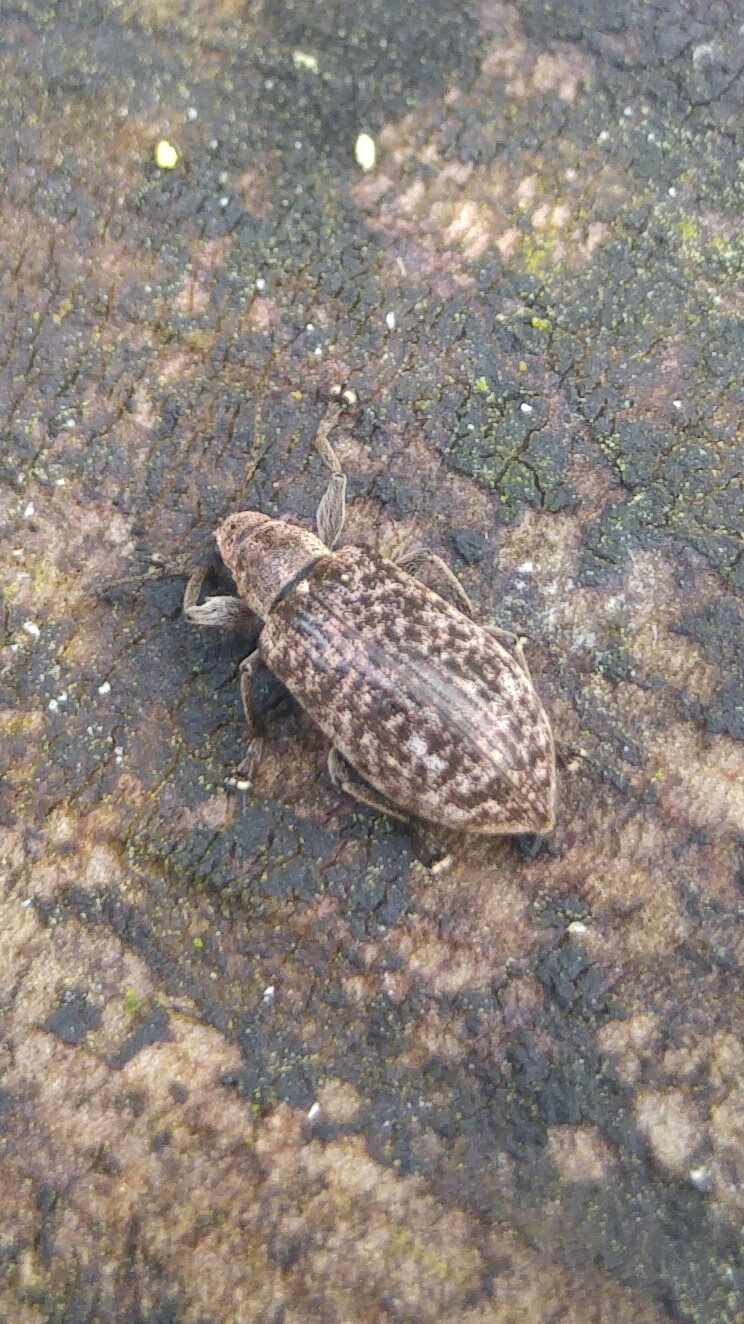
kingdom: Animalia
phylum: Arthropoda
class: Insecta
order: Coleoptera
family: Curculionidae
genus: Polydrusus
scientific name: Polydrusus pilosus
